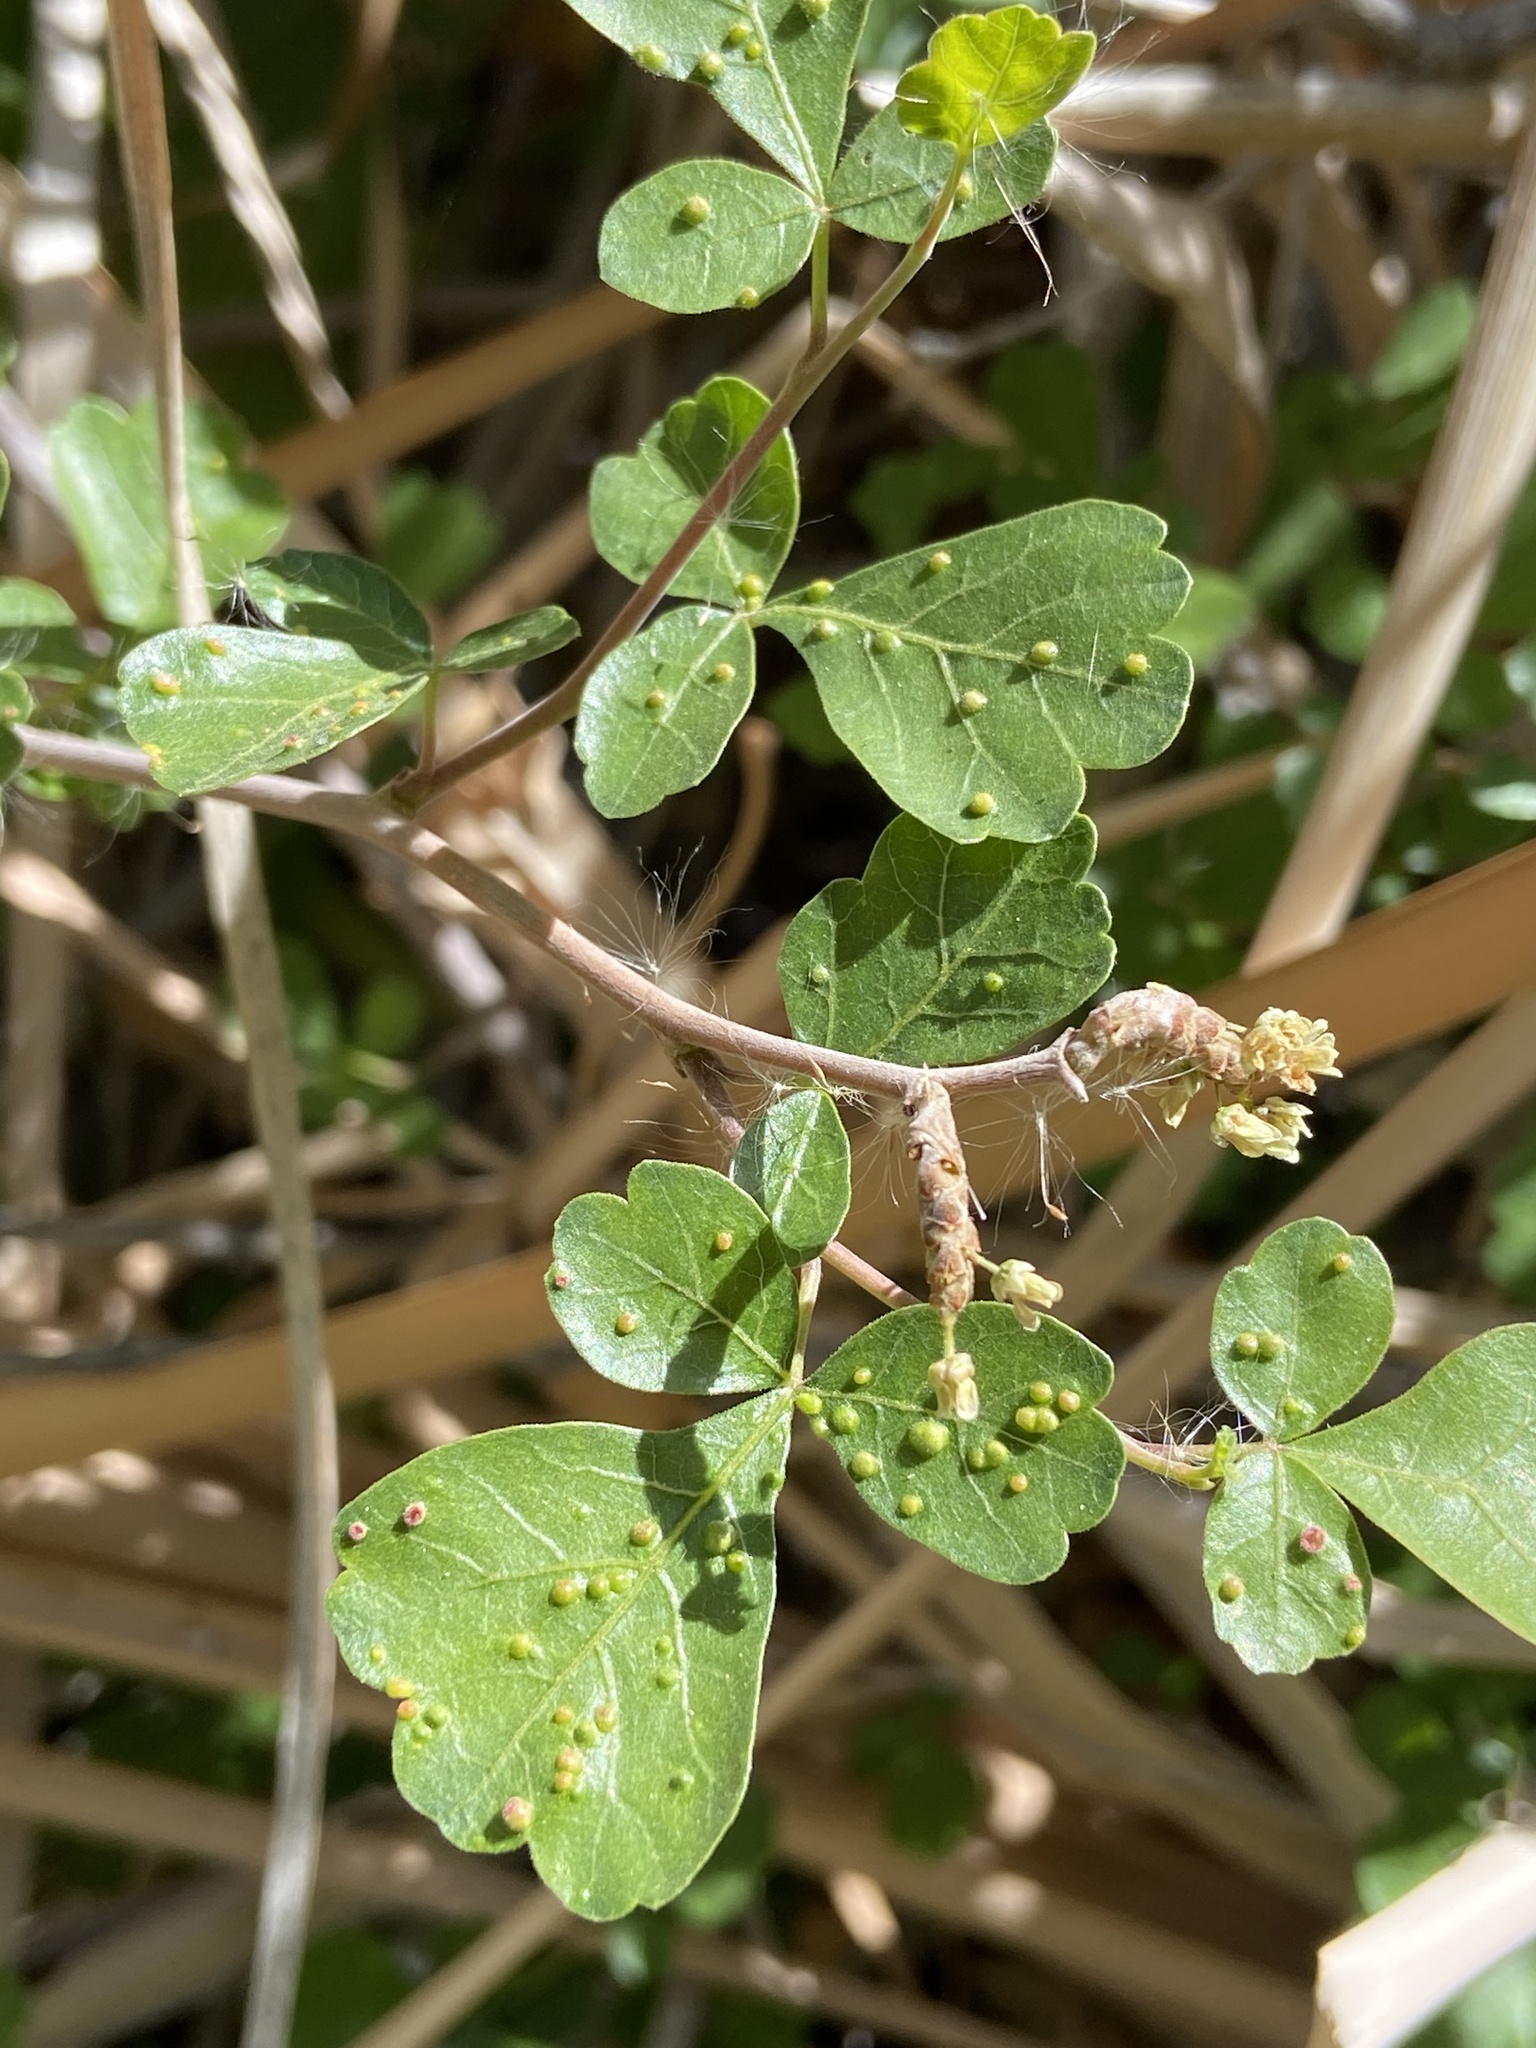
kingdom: Animalia
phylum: Arthropoda
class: Arachnida
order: Trombidiformes
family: Eriophyidae
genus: Aculops
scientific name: Aculops
